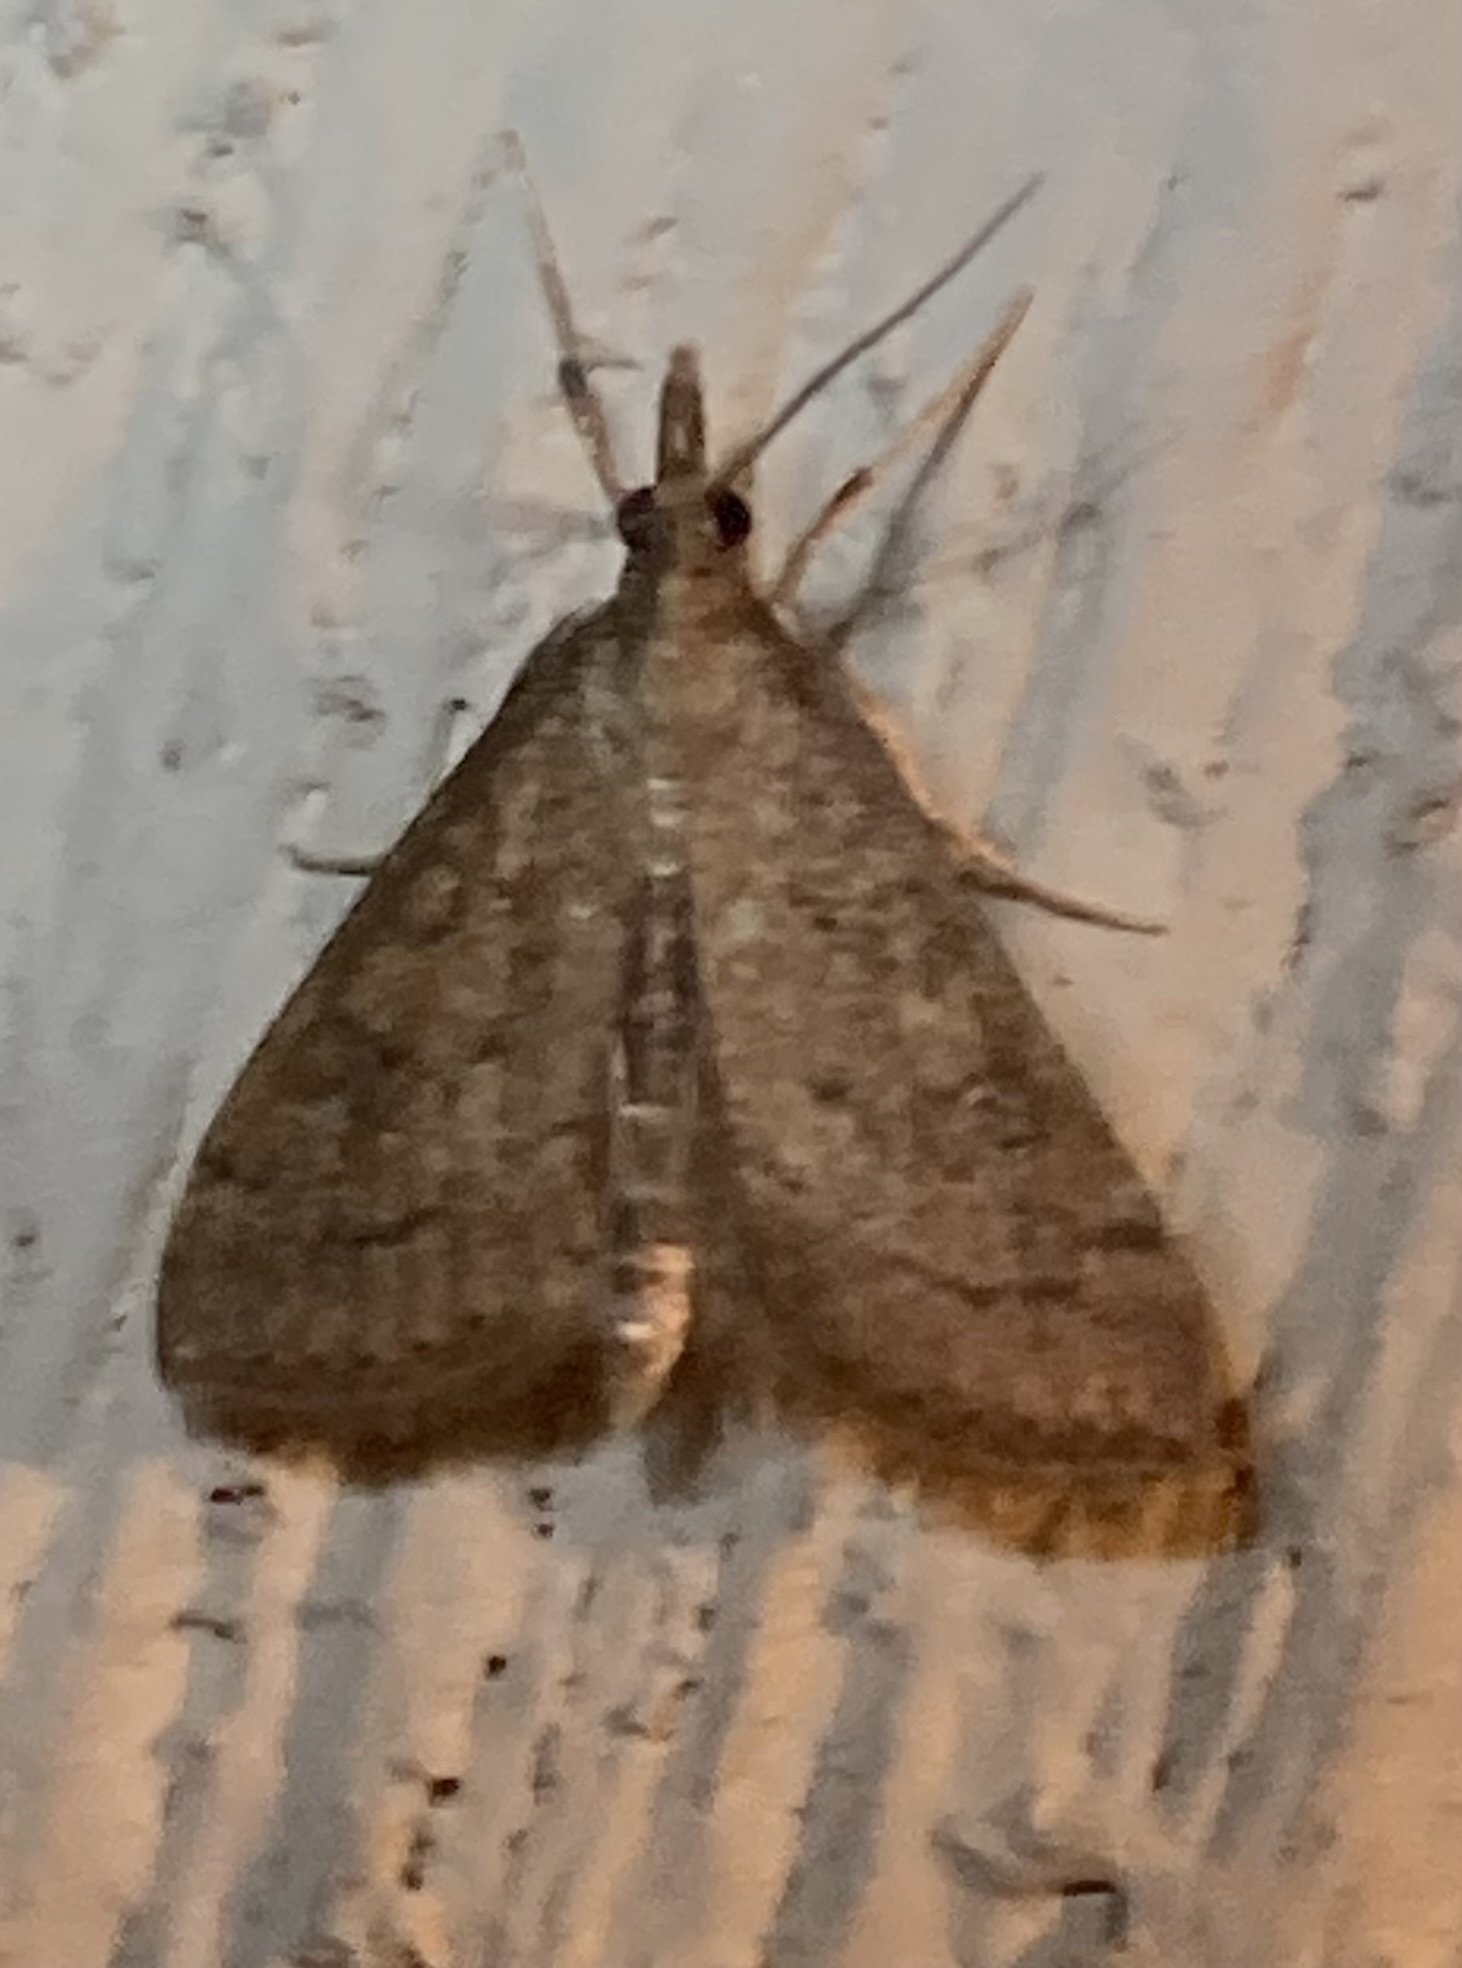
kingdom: Animalia
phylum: Arthropoda
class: Insecta
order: Lepidoptera
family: Crambidae
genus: Udea
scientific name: Udea rubigalis
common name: Celery leaftier moth
